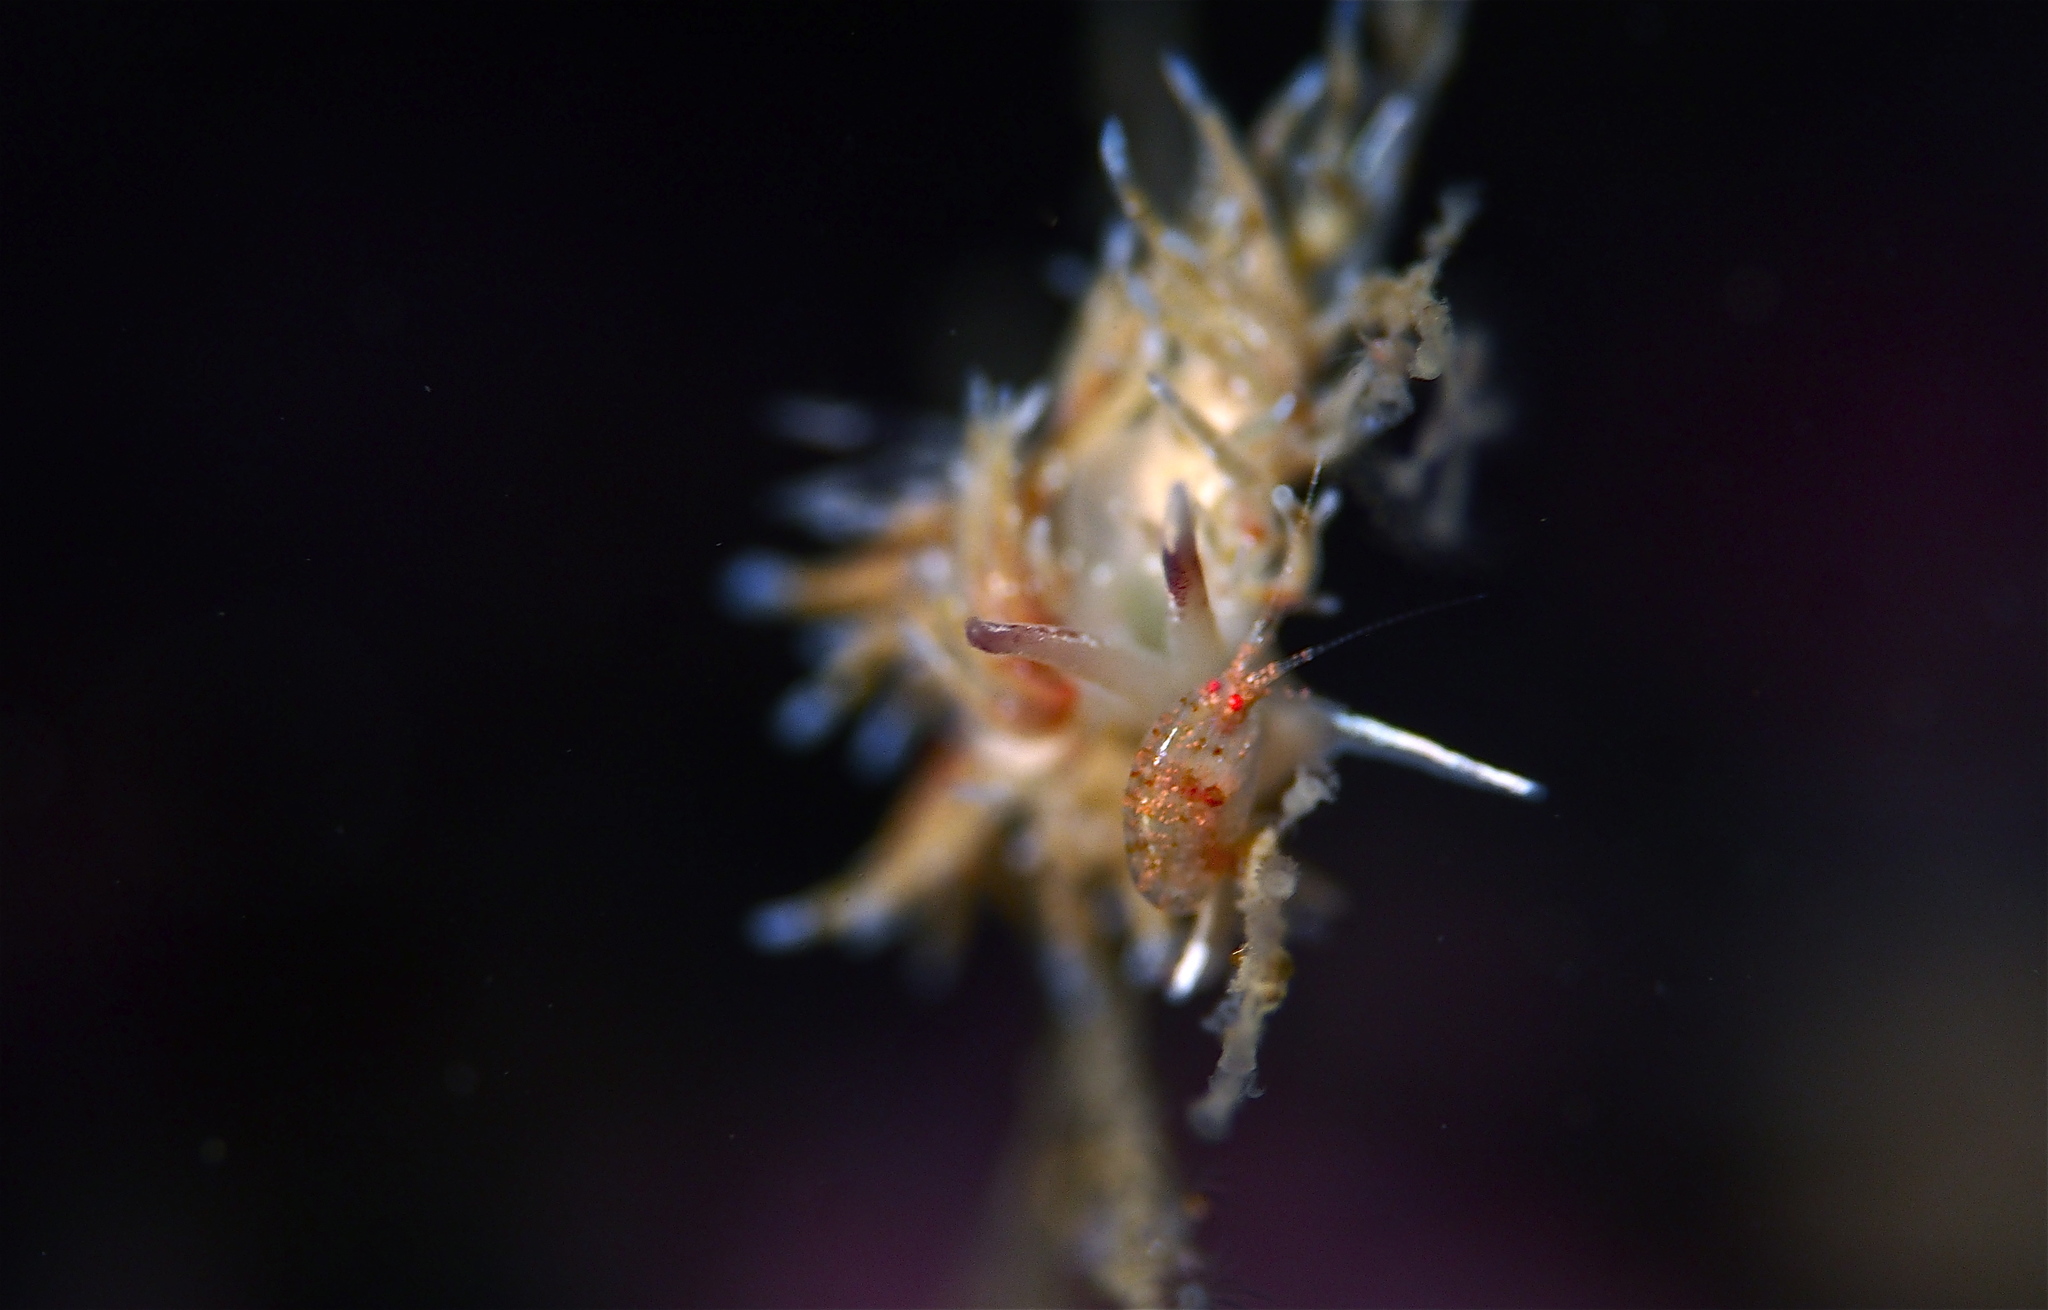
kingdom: Animalia
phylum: Mollusca
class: Gastropoda
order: Nudibranchia
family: Trinchesiidae
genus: Rubramoena
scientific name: Rubramoena rubescens
